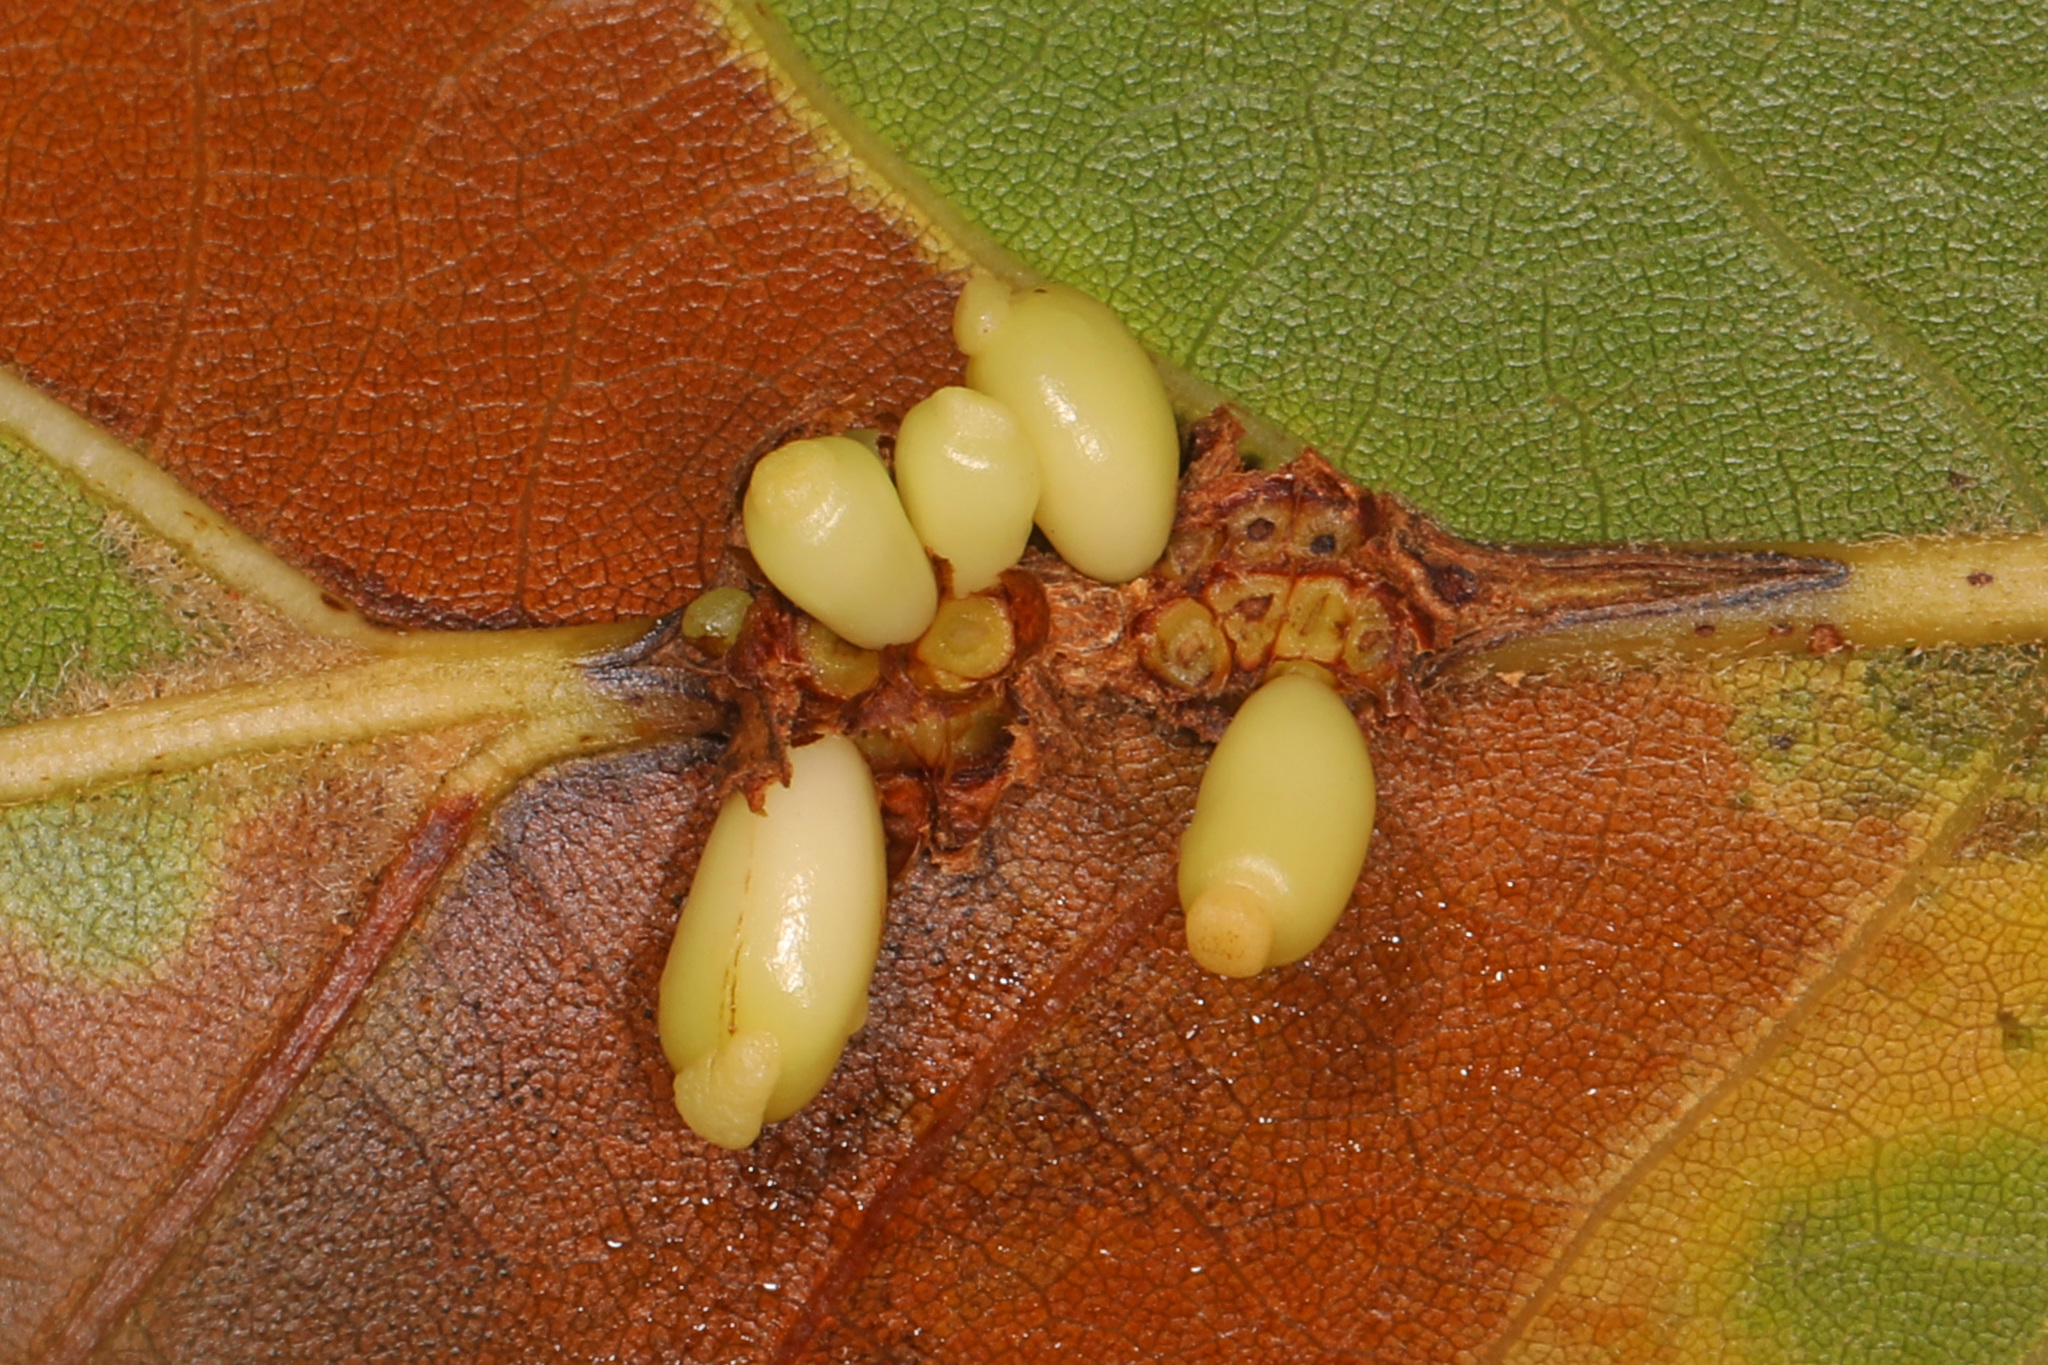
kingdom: Animalia
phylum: Arthropoda
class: Insecta
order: Hymenoptera
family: Cynipidae
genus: Kokkocynips
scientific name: Kokkocynips decidua
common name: Oak wheat gall
